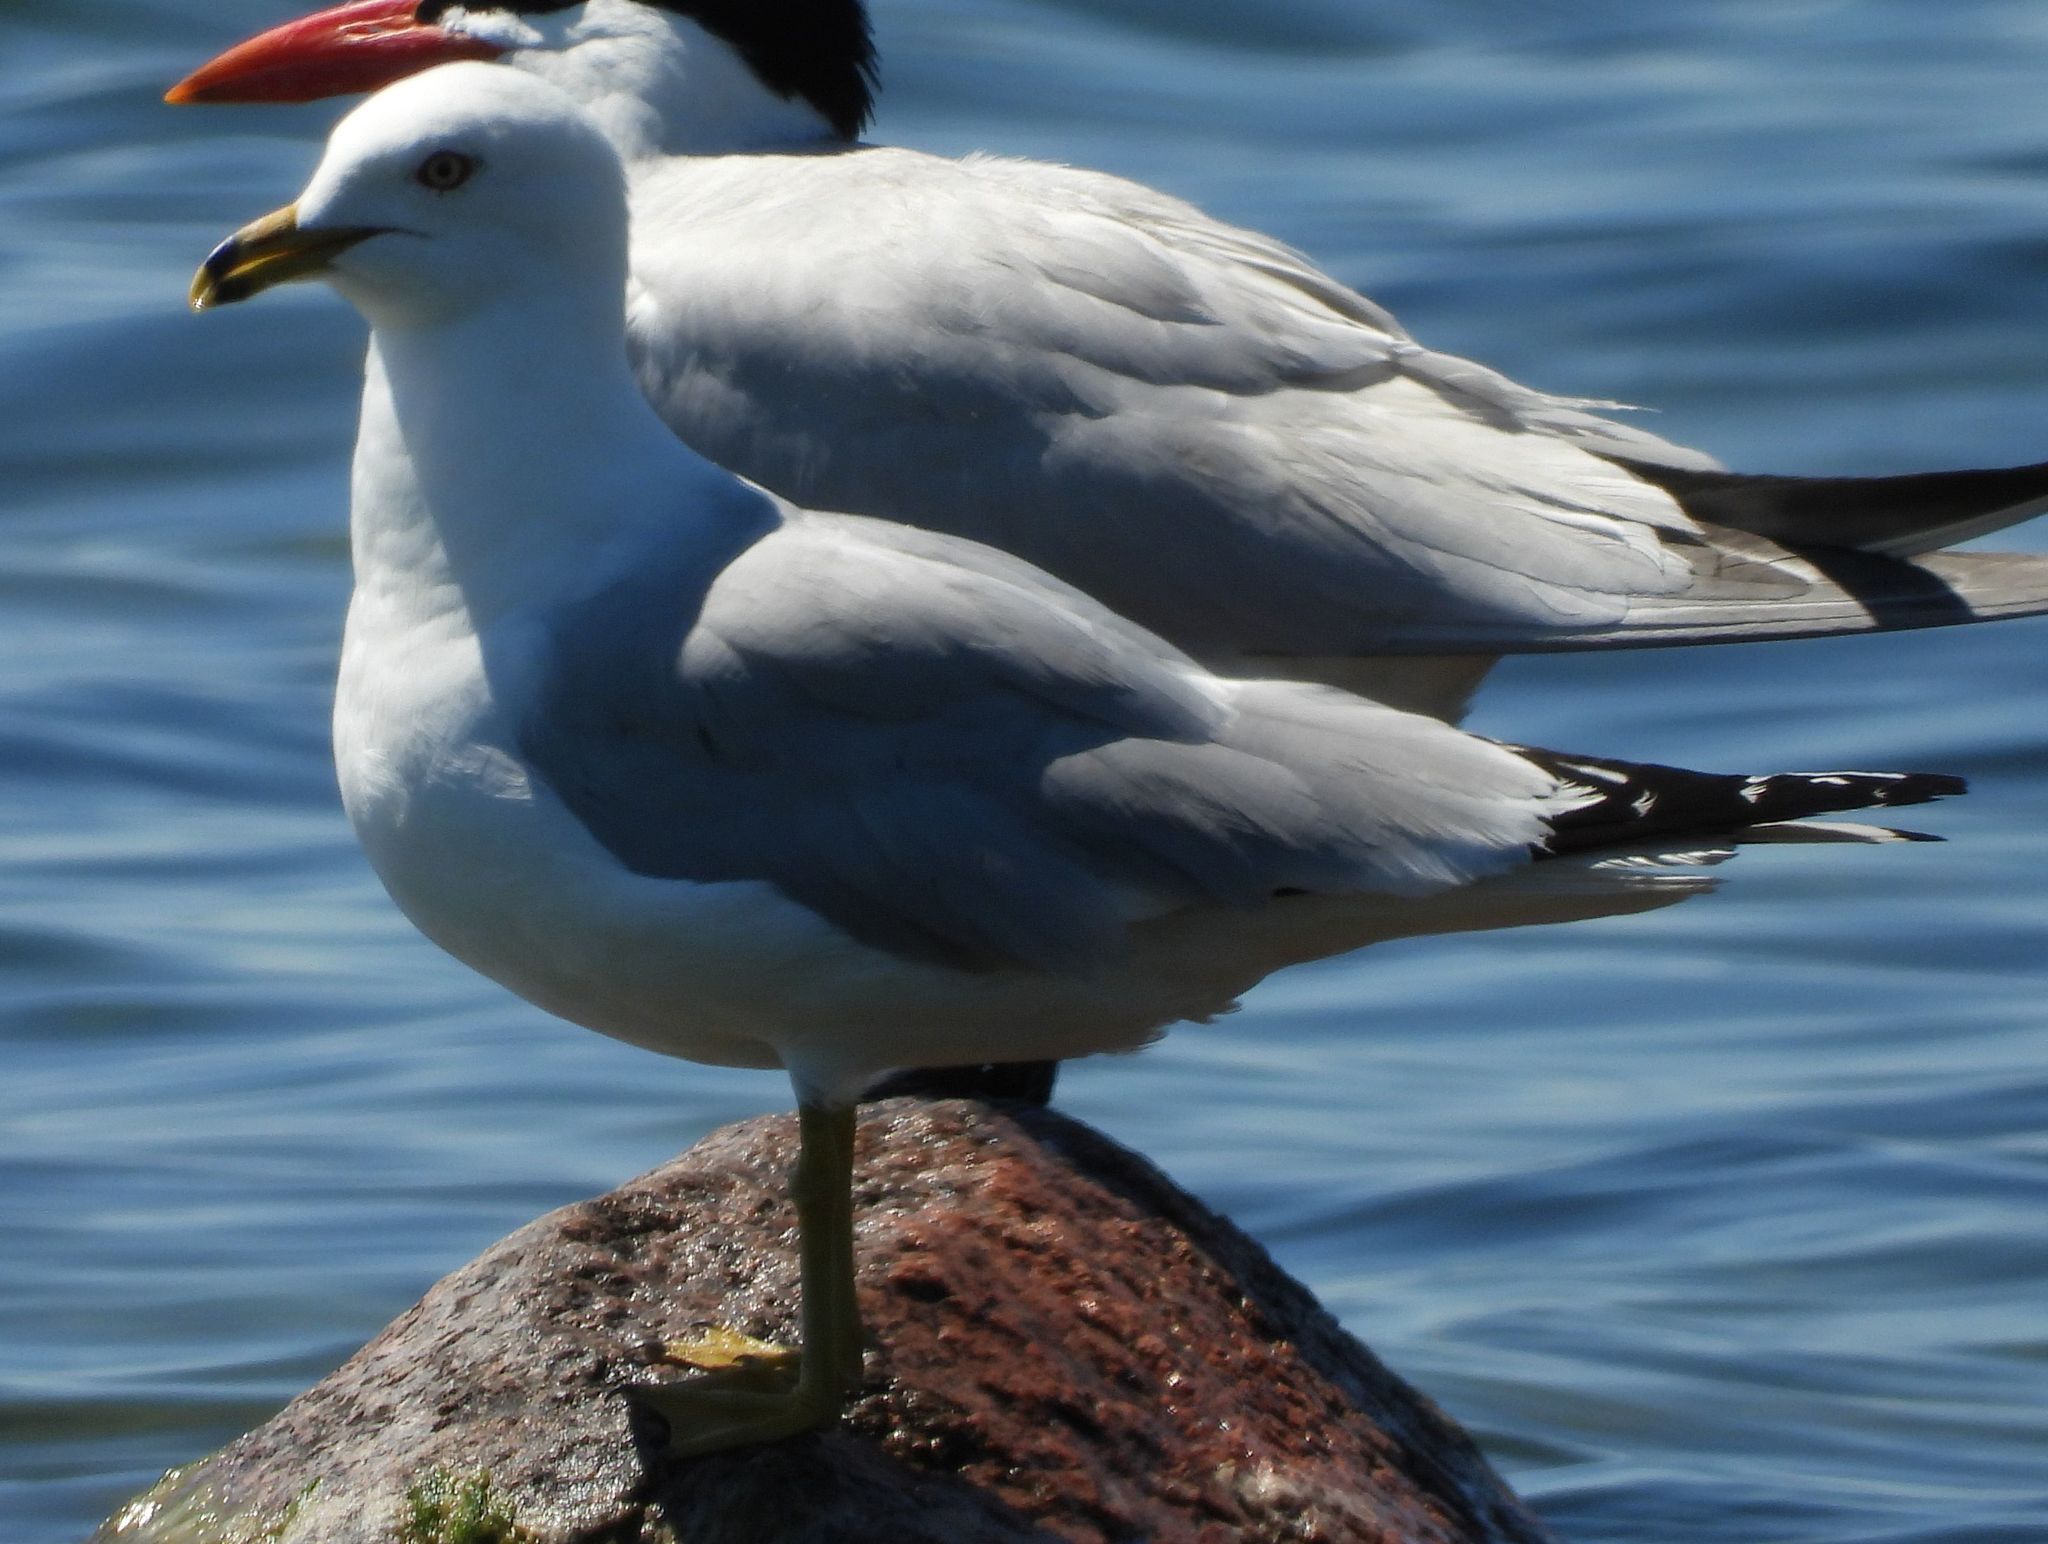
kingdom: Animalia
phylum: Chordata
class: Aves
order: Charadriiformes
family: Laridae
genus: Larus
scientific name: Larus delawarensis
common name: Ring-billed gull
